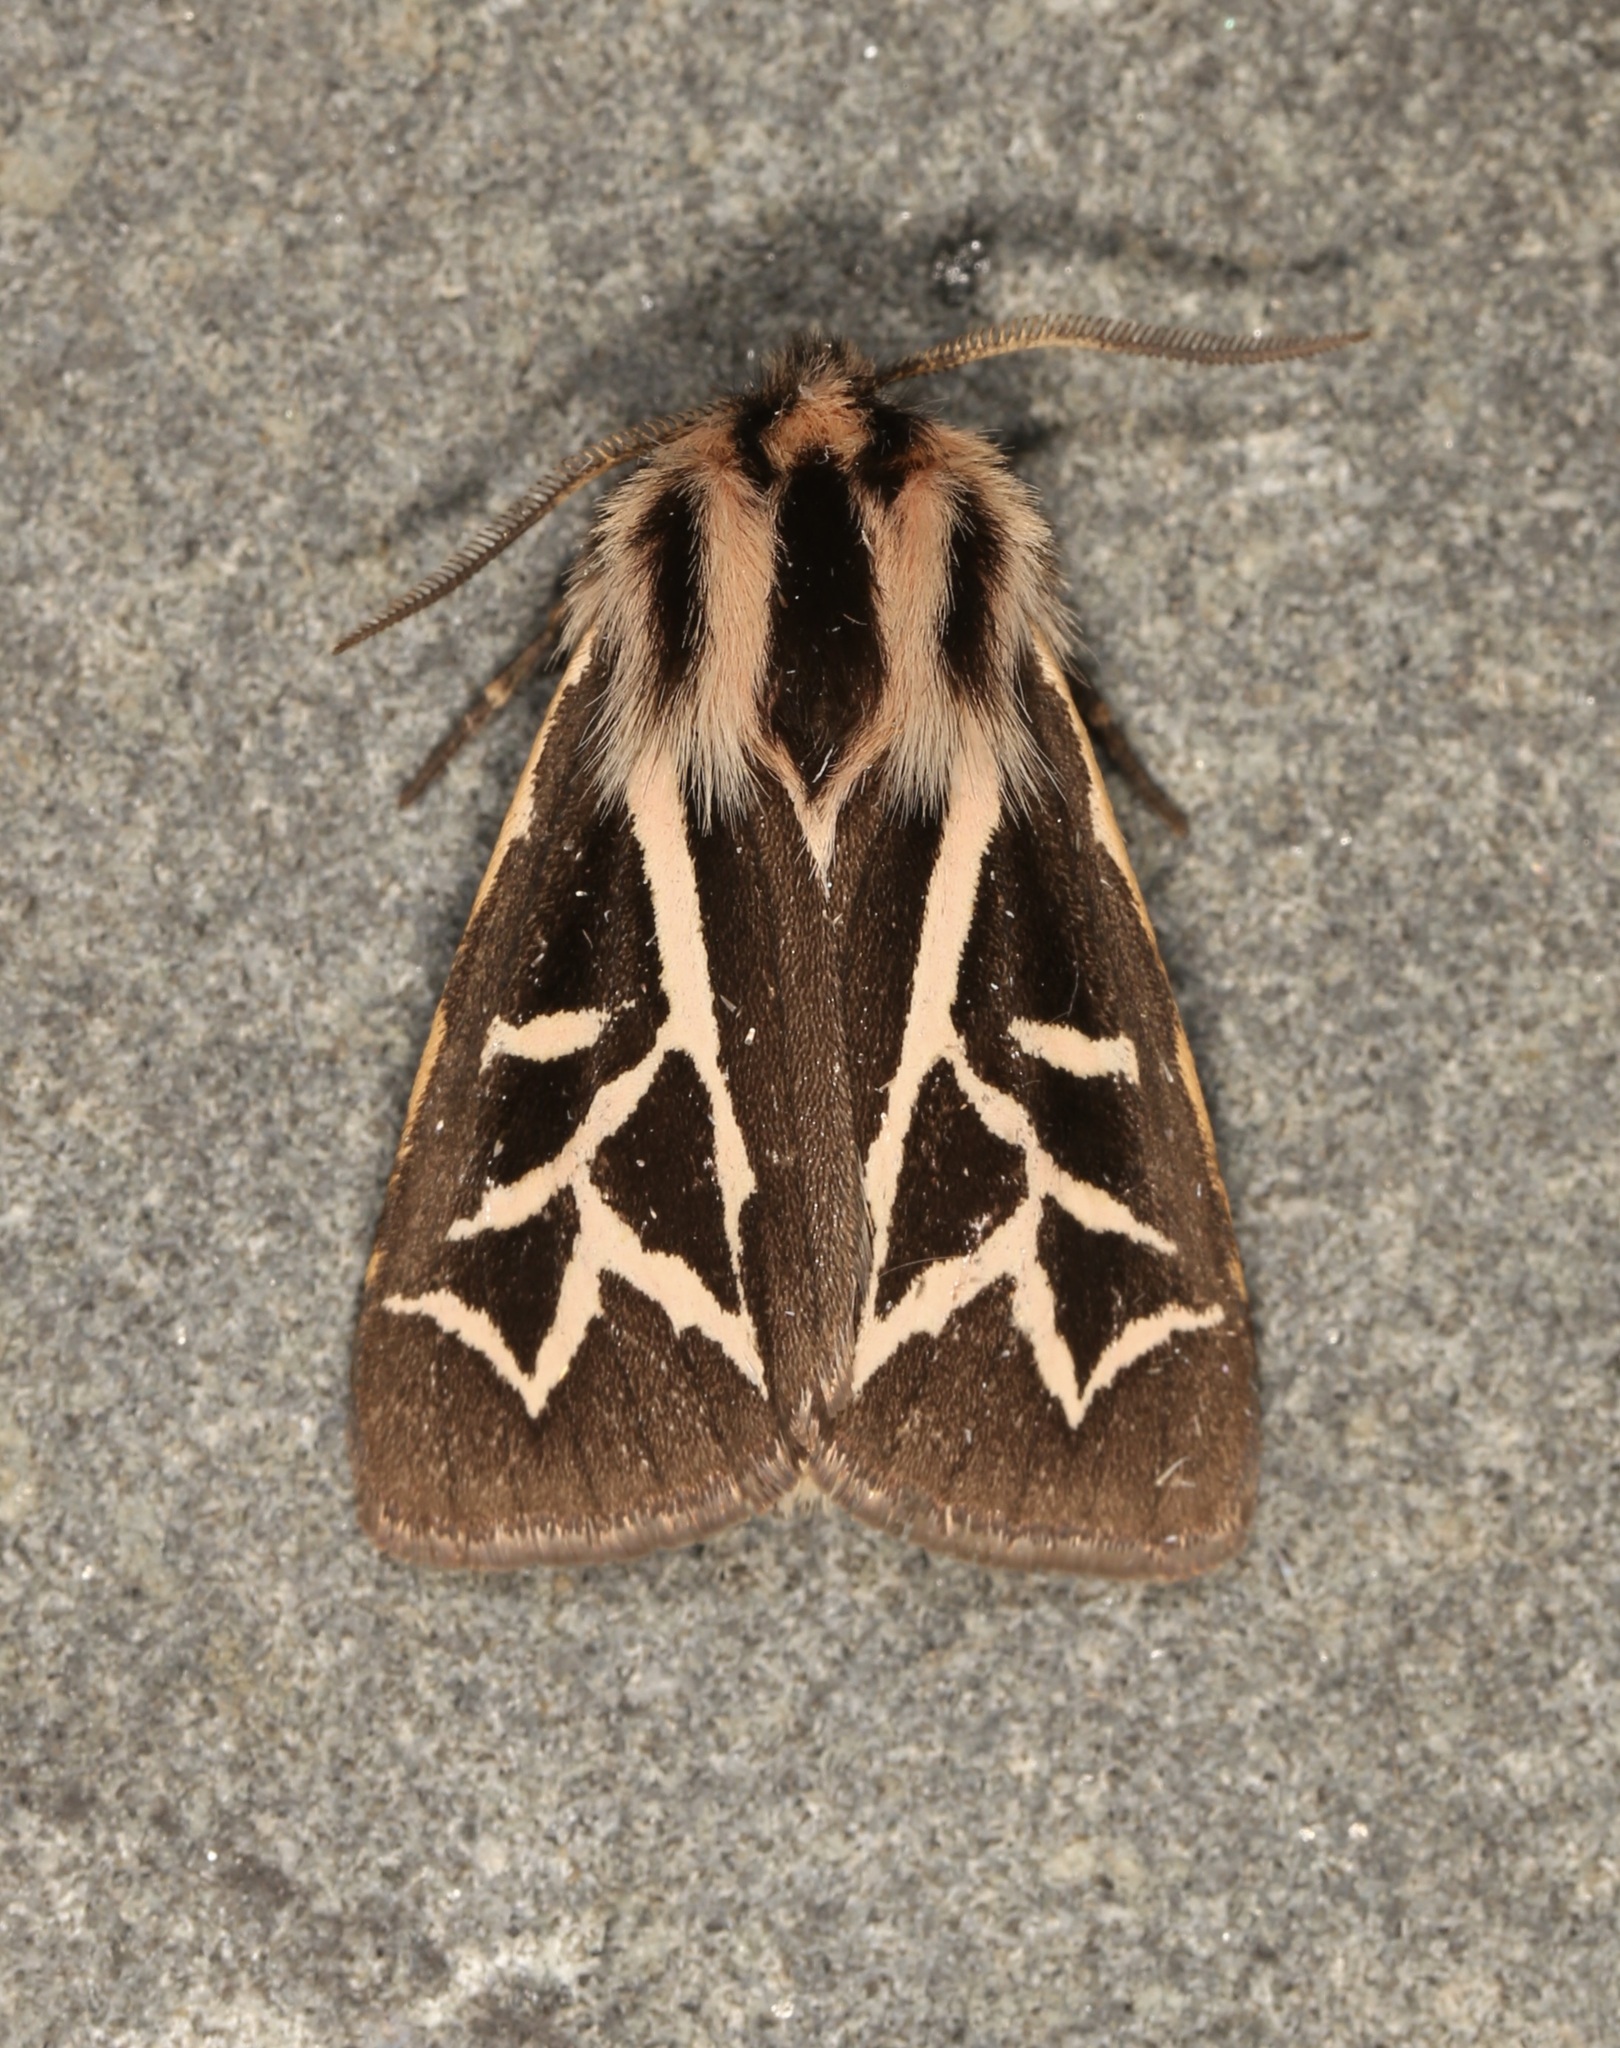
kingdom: Animalia
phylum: Arthropoda
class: Insecta
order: Lepidoptera
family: Erebidae
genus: Apantesis
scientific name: Apantesis
